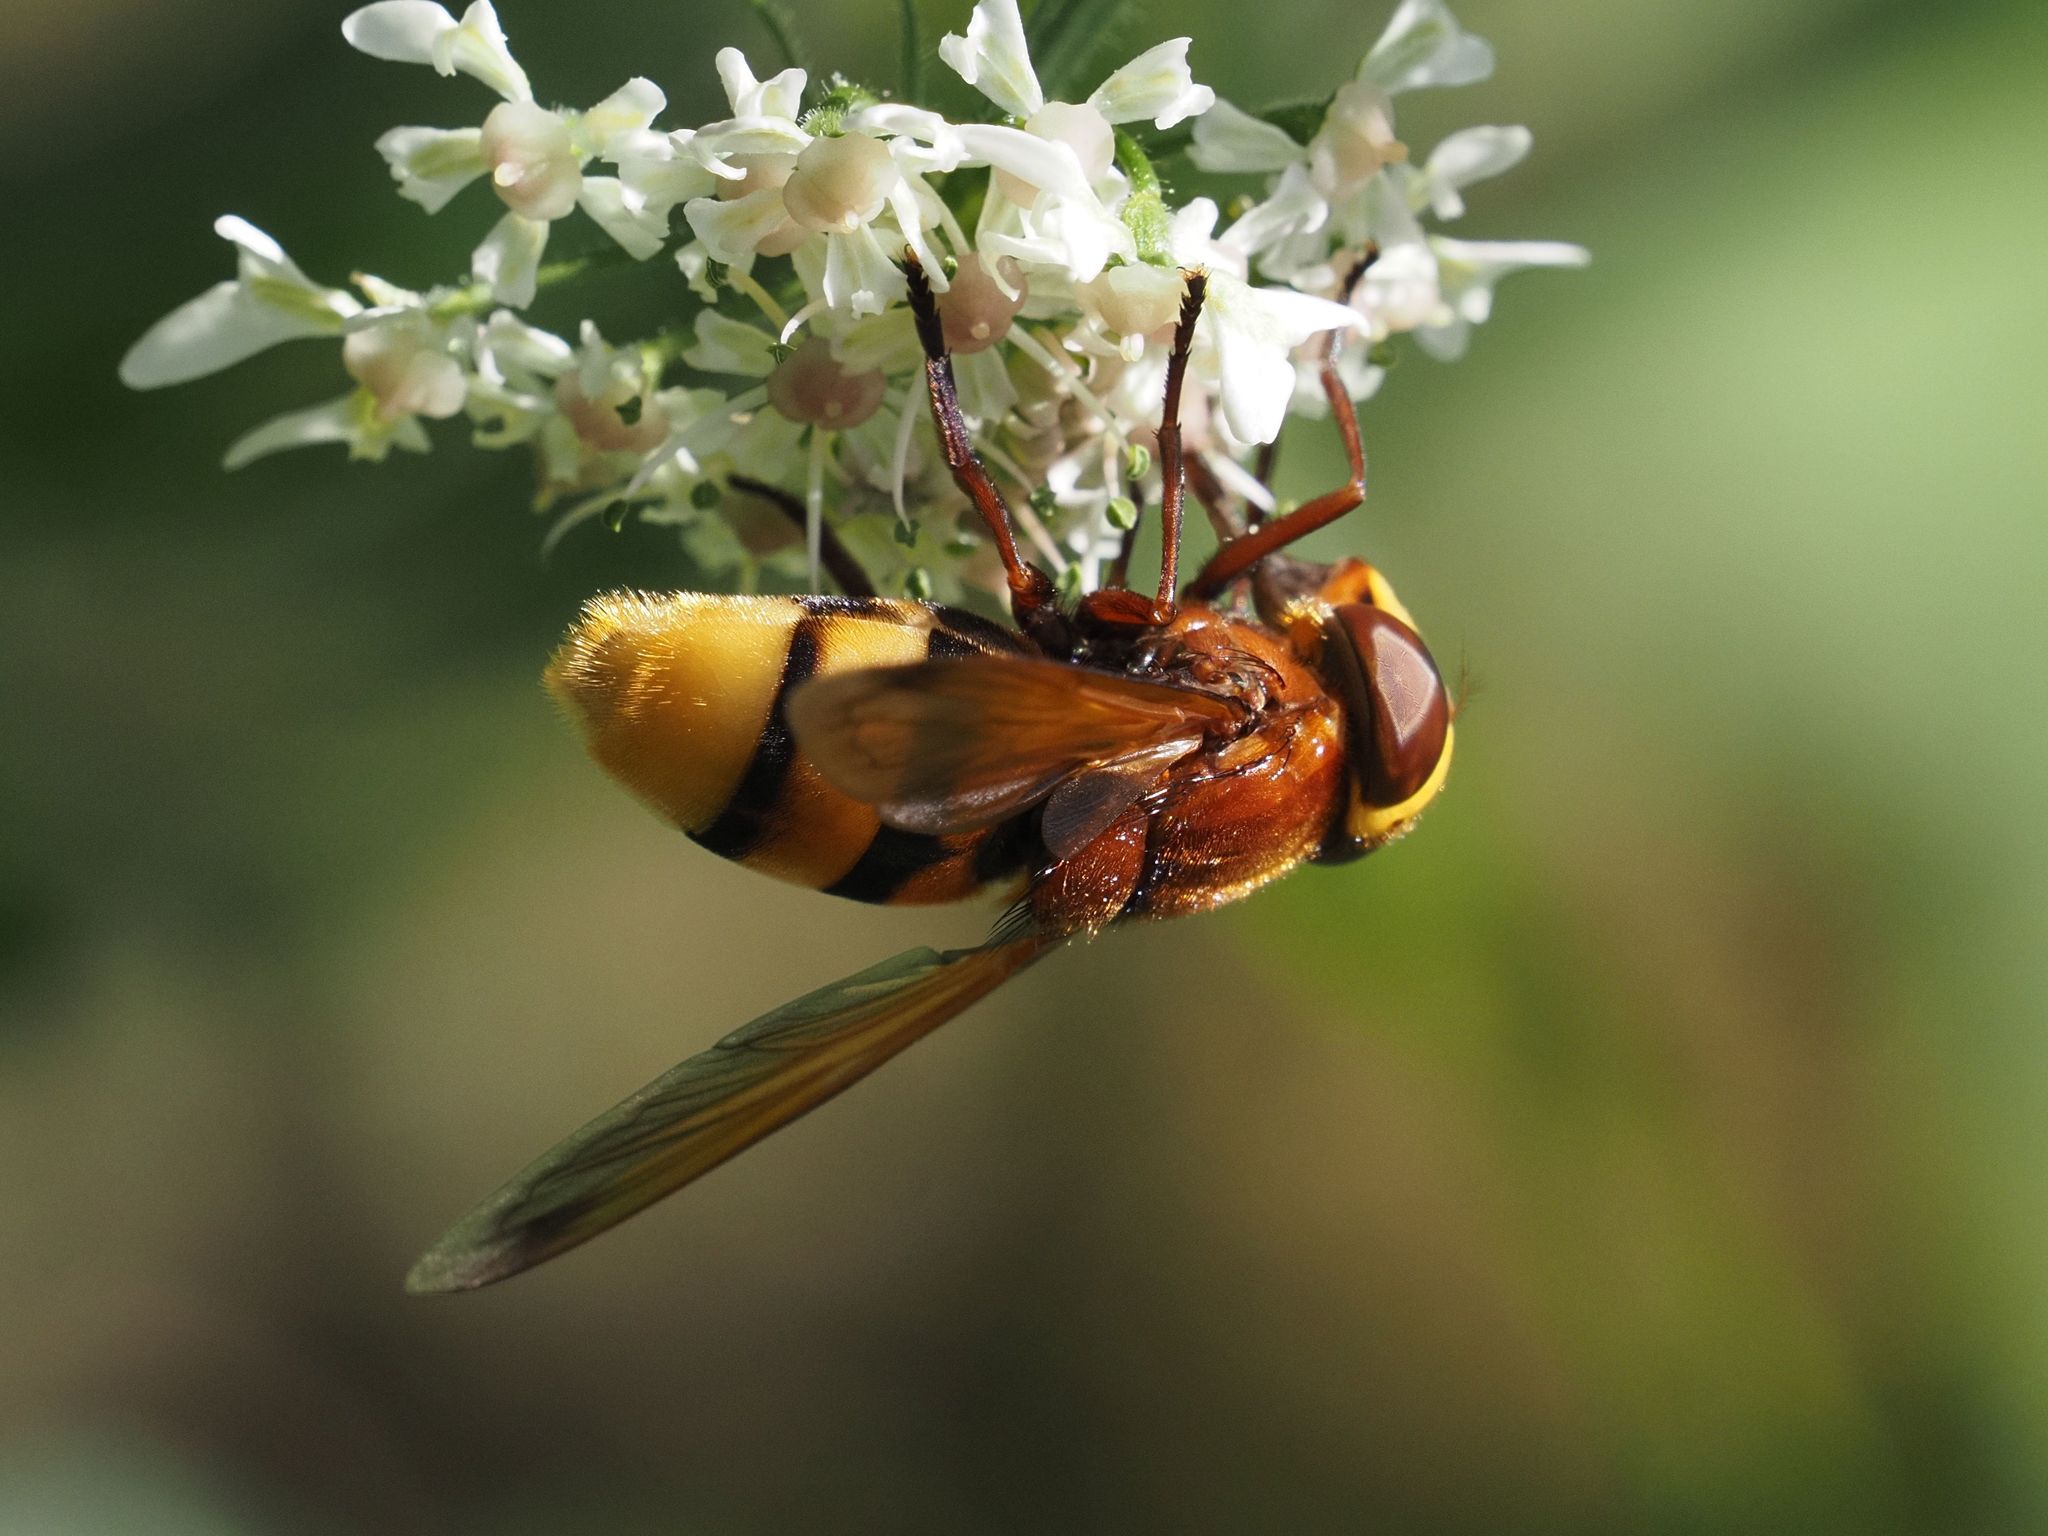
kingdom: Animalia
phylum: Arthropoda
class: Insecta
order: Diptera
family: Syrphidae
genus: Volucella
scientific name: Volucella zonaria
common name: Hornet hoverfly
